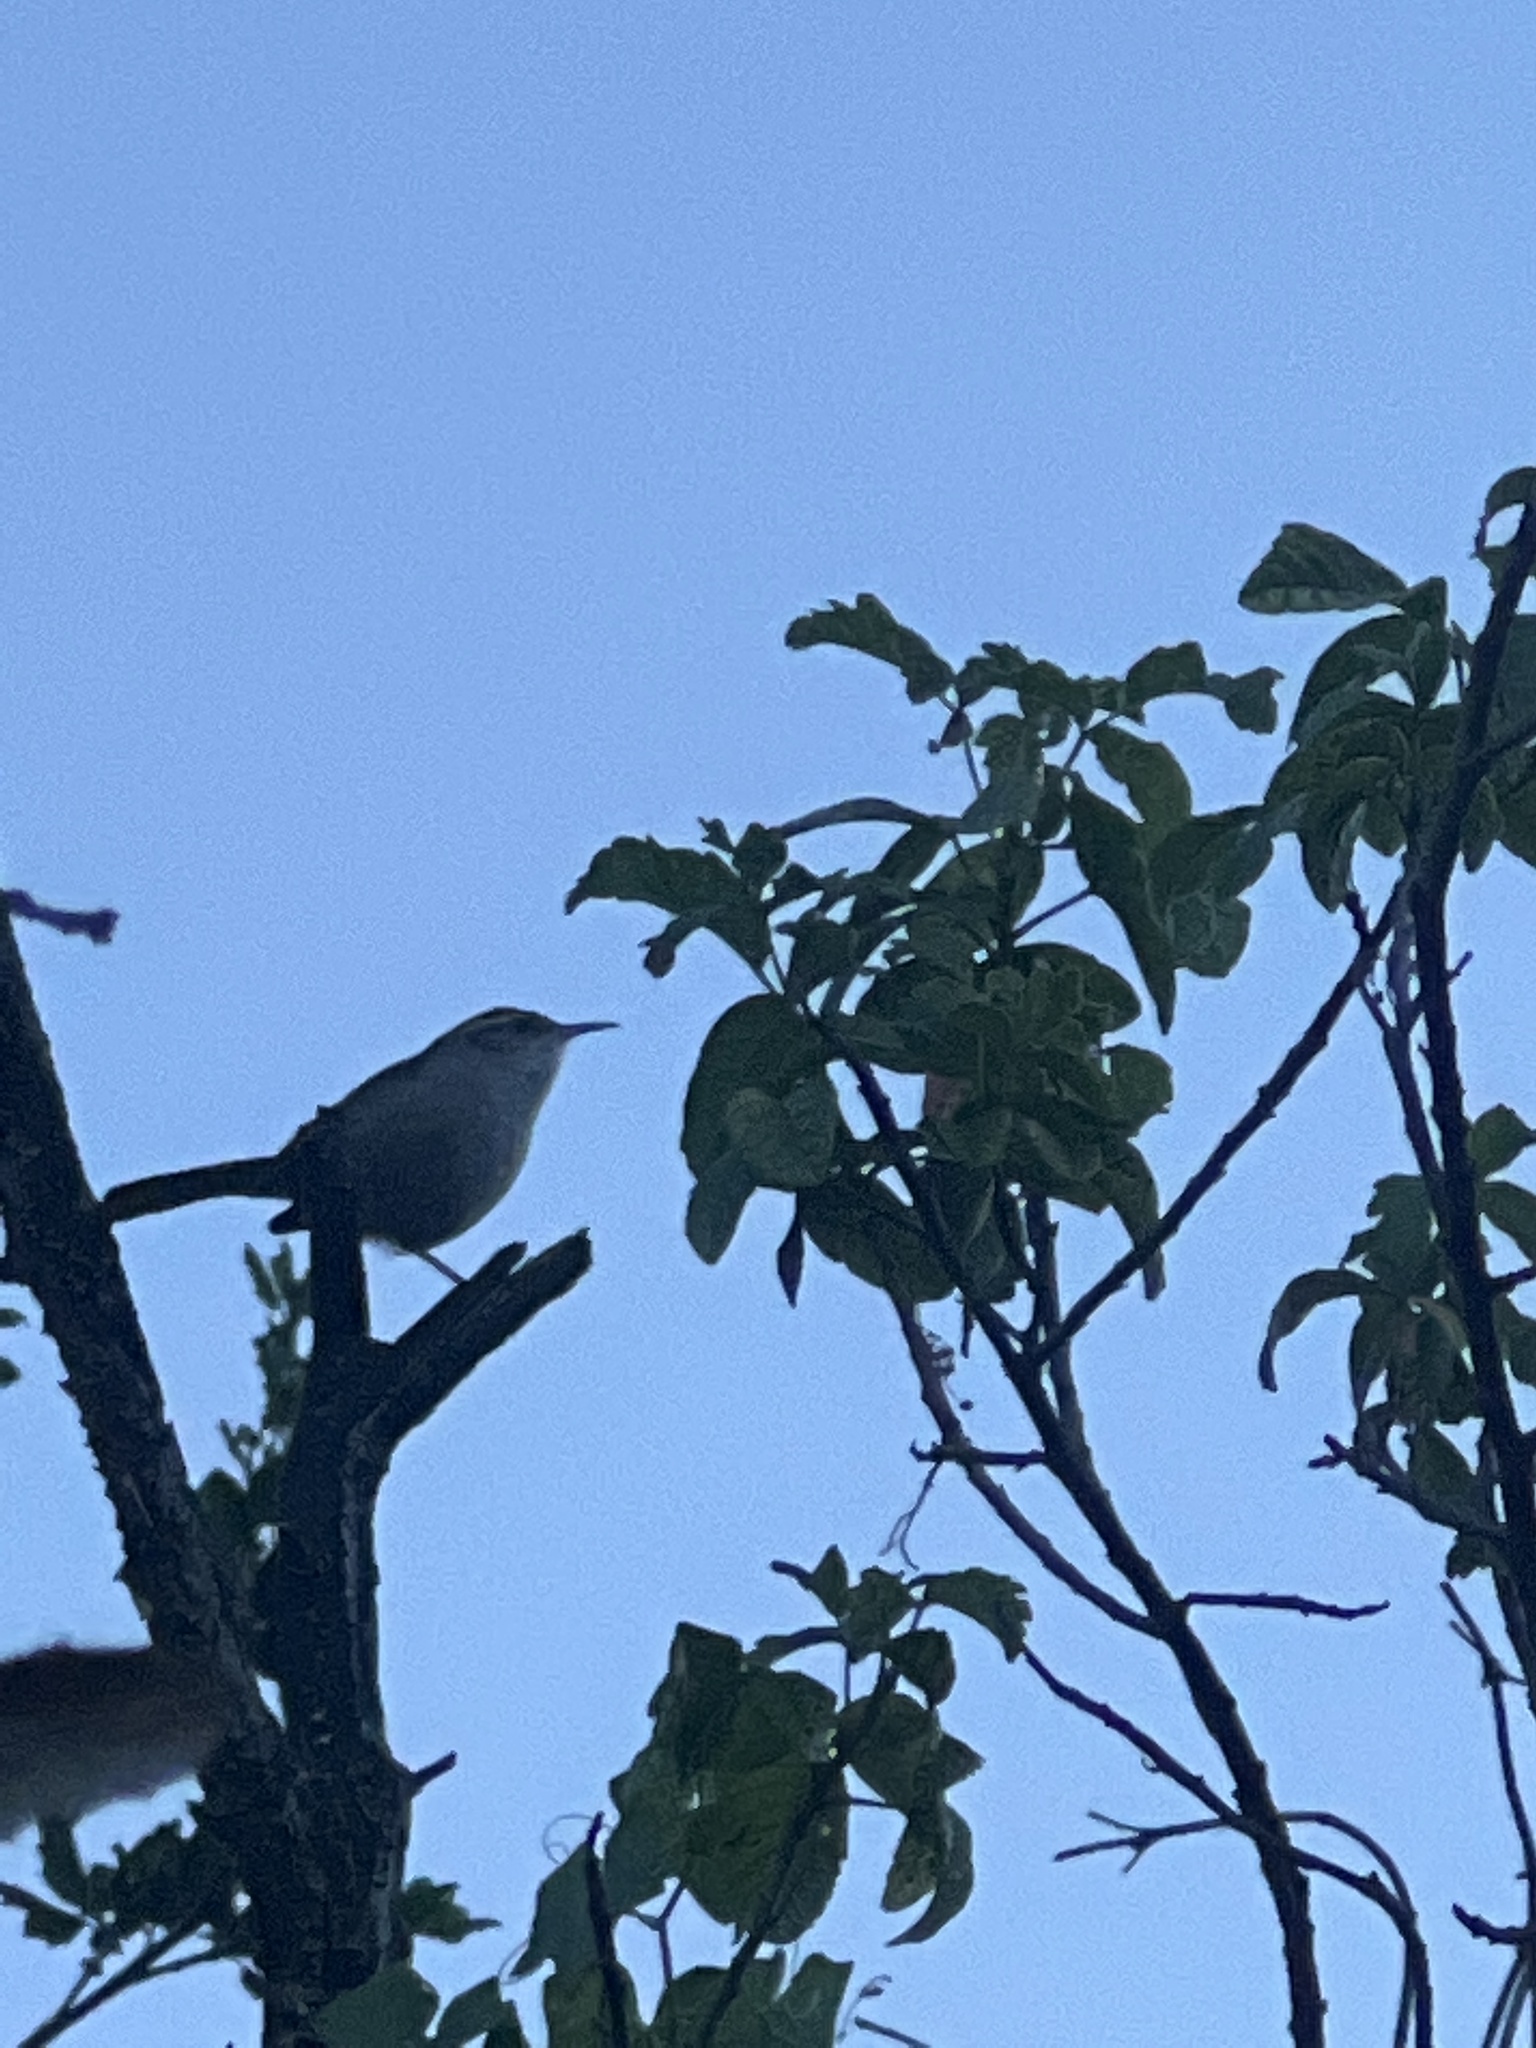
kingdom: Animalia
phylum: Chordata
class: Aves
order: Passeriformes
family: Troglodytidae
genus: Thryomanes
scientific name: Thryomanes bewickii
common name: Bewick's wren
